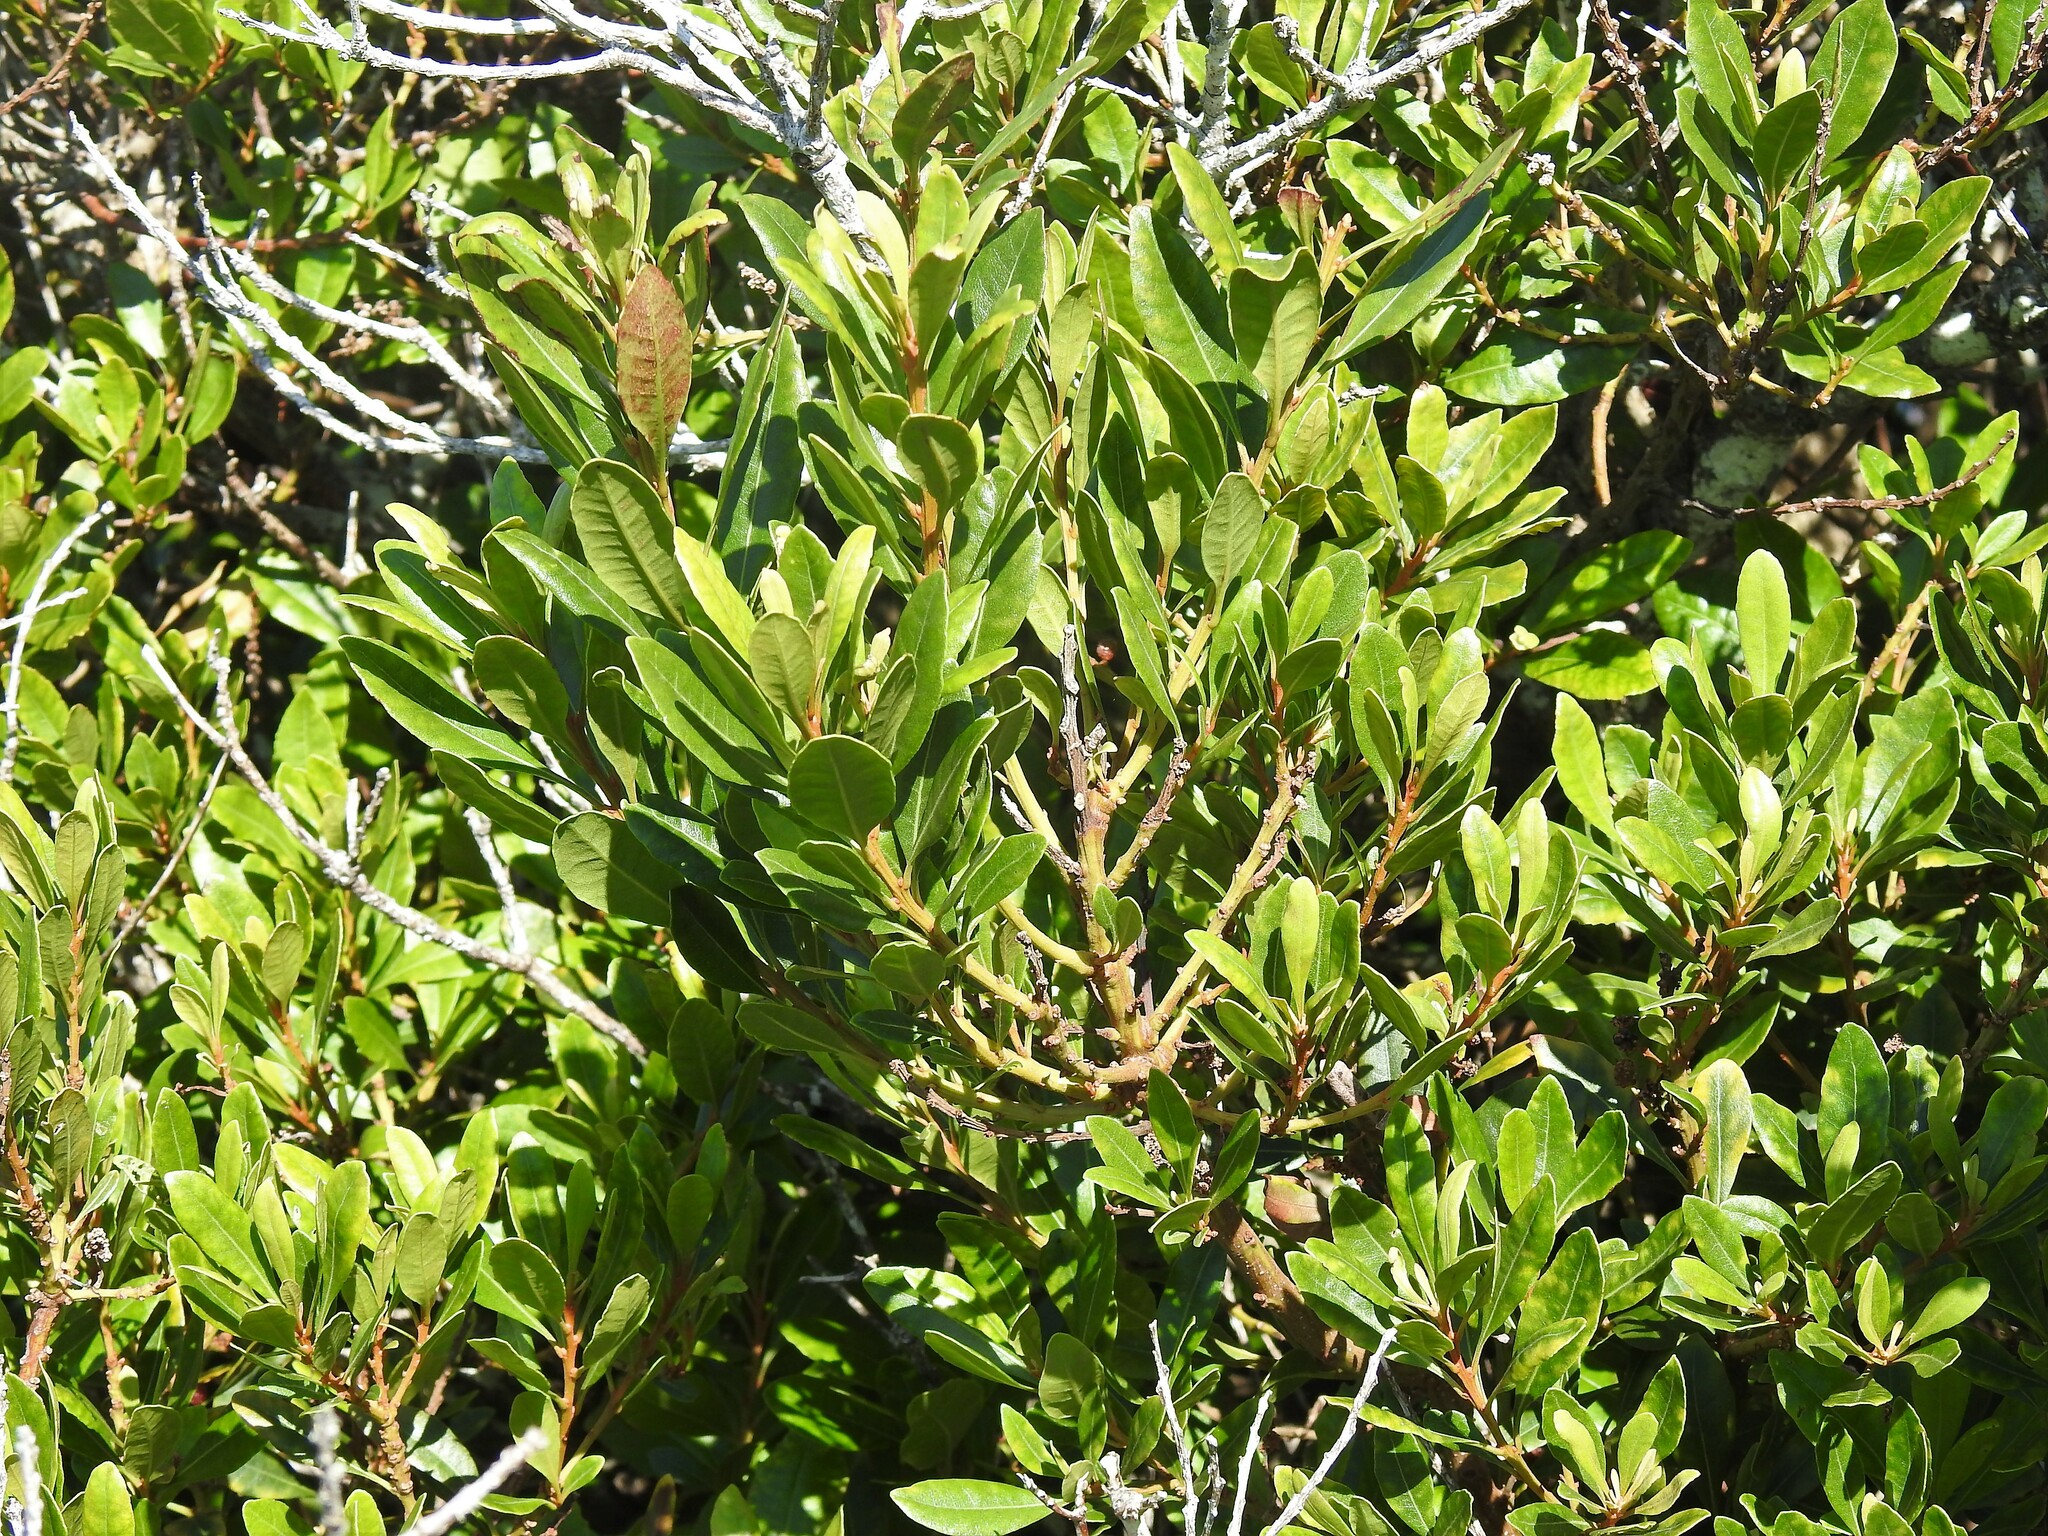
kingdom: Plantae
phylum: Tracheophyta
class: Magnoliopsida
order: Fagales
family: Myricaceae
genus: Morella
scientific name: Morella faya
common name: Firetree
